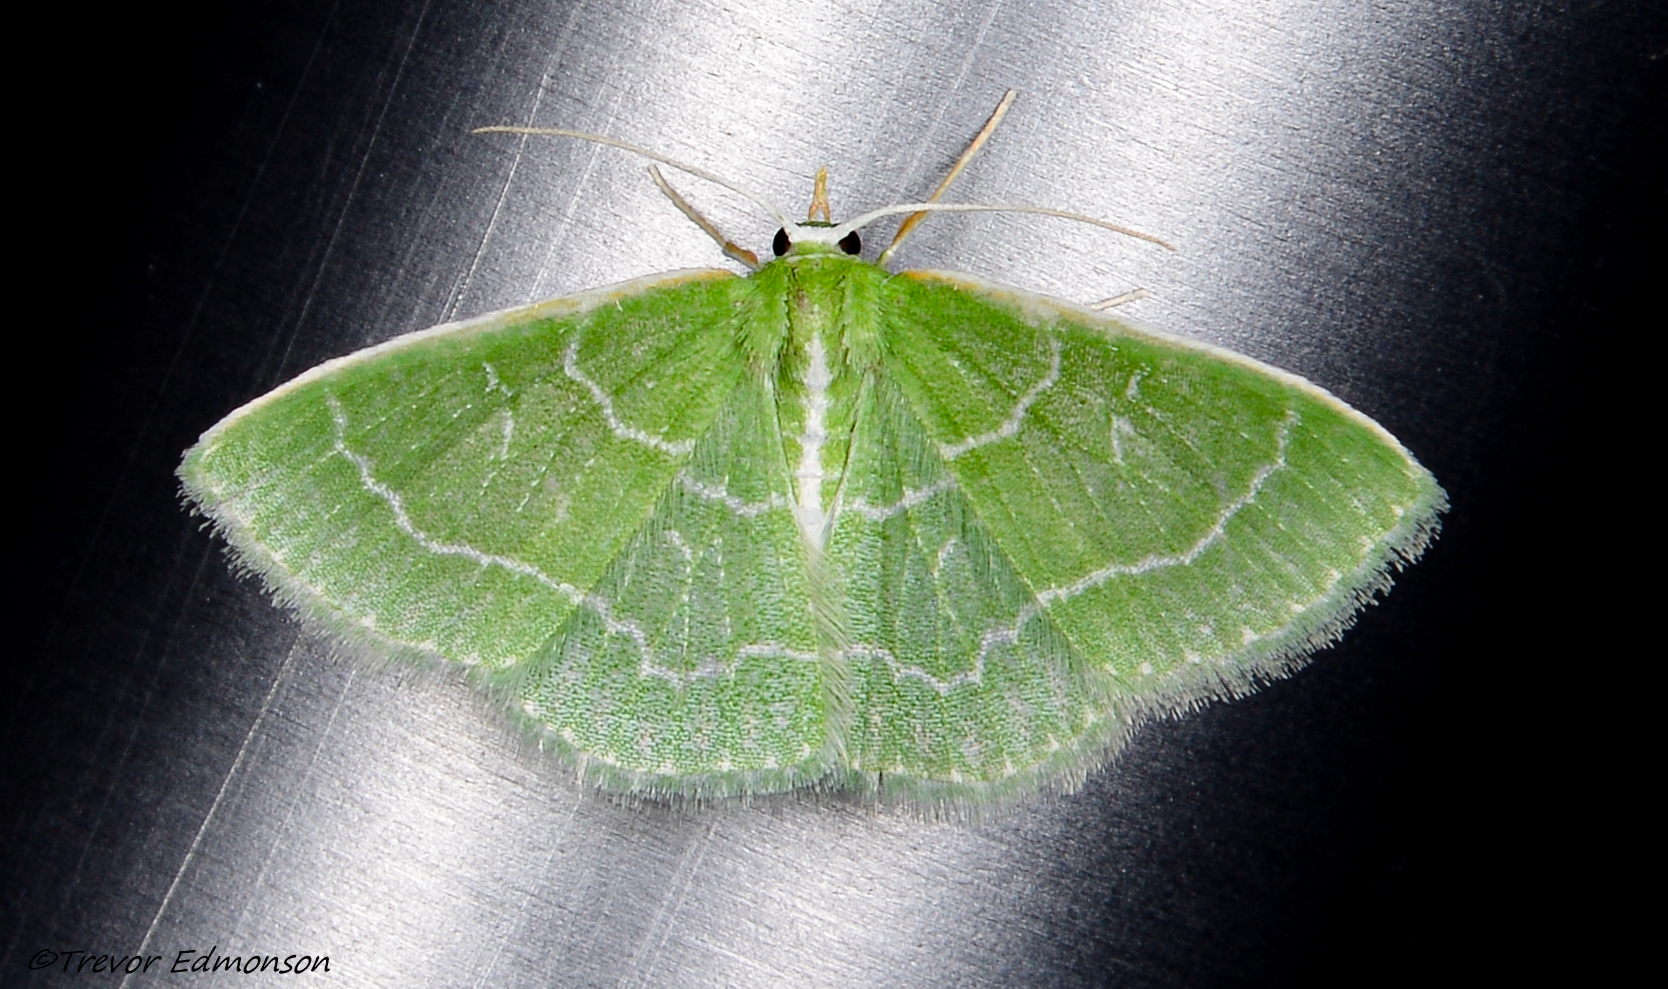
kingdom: Animalia
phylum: Arthropoda
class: Insecta
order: Lepidoptera
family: Geometridae
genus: Synchlora
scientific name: Synchlora aerata
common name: Wavy-lined emerald
